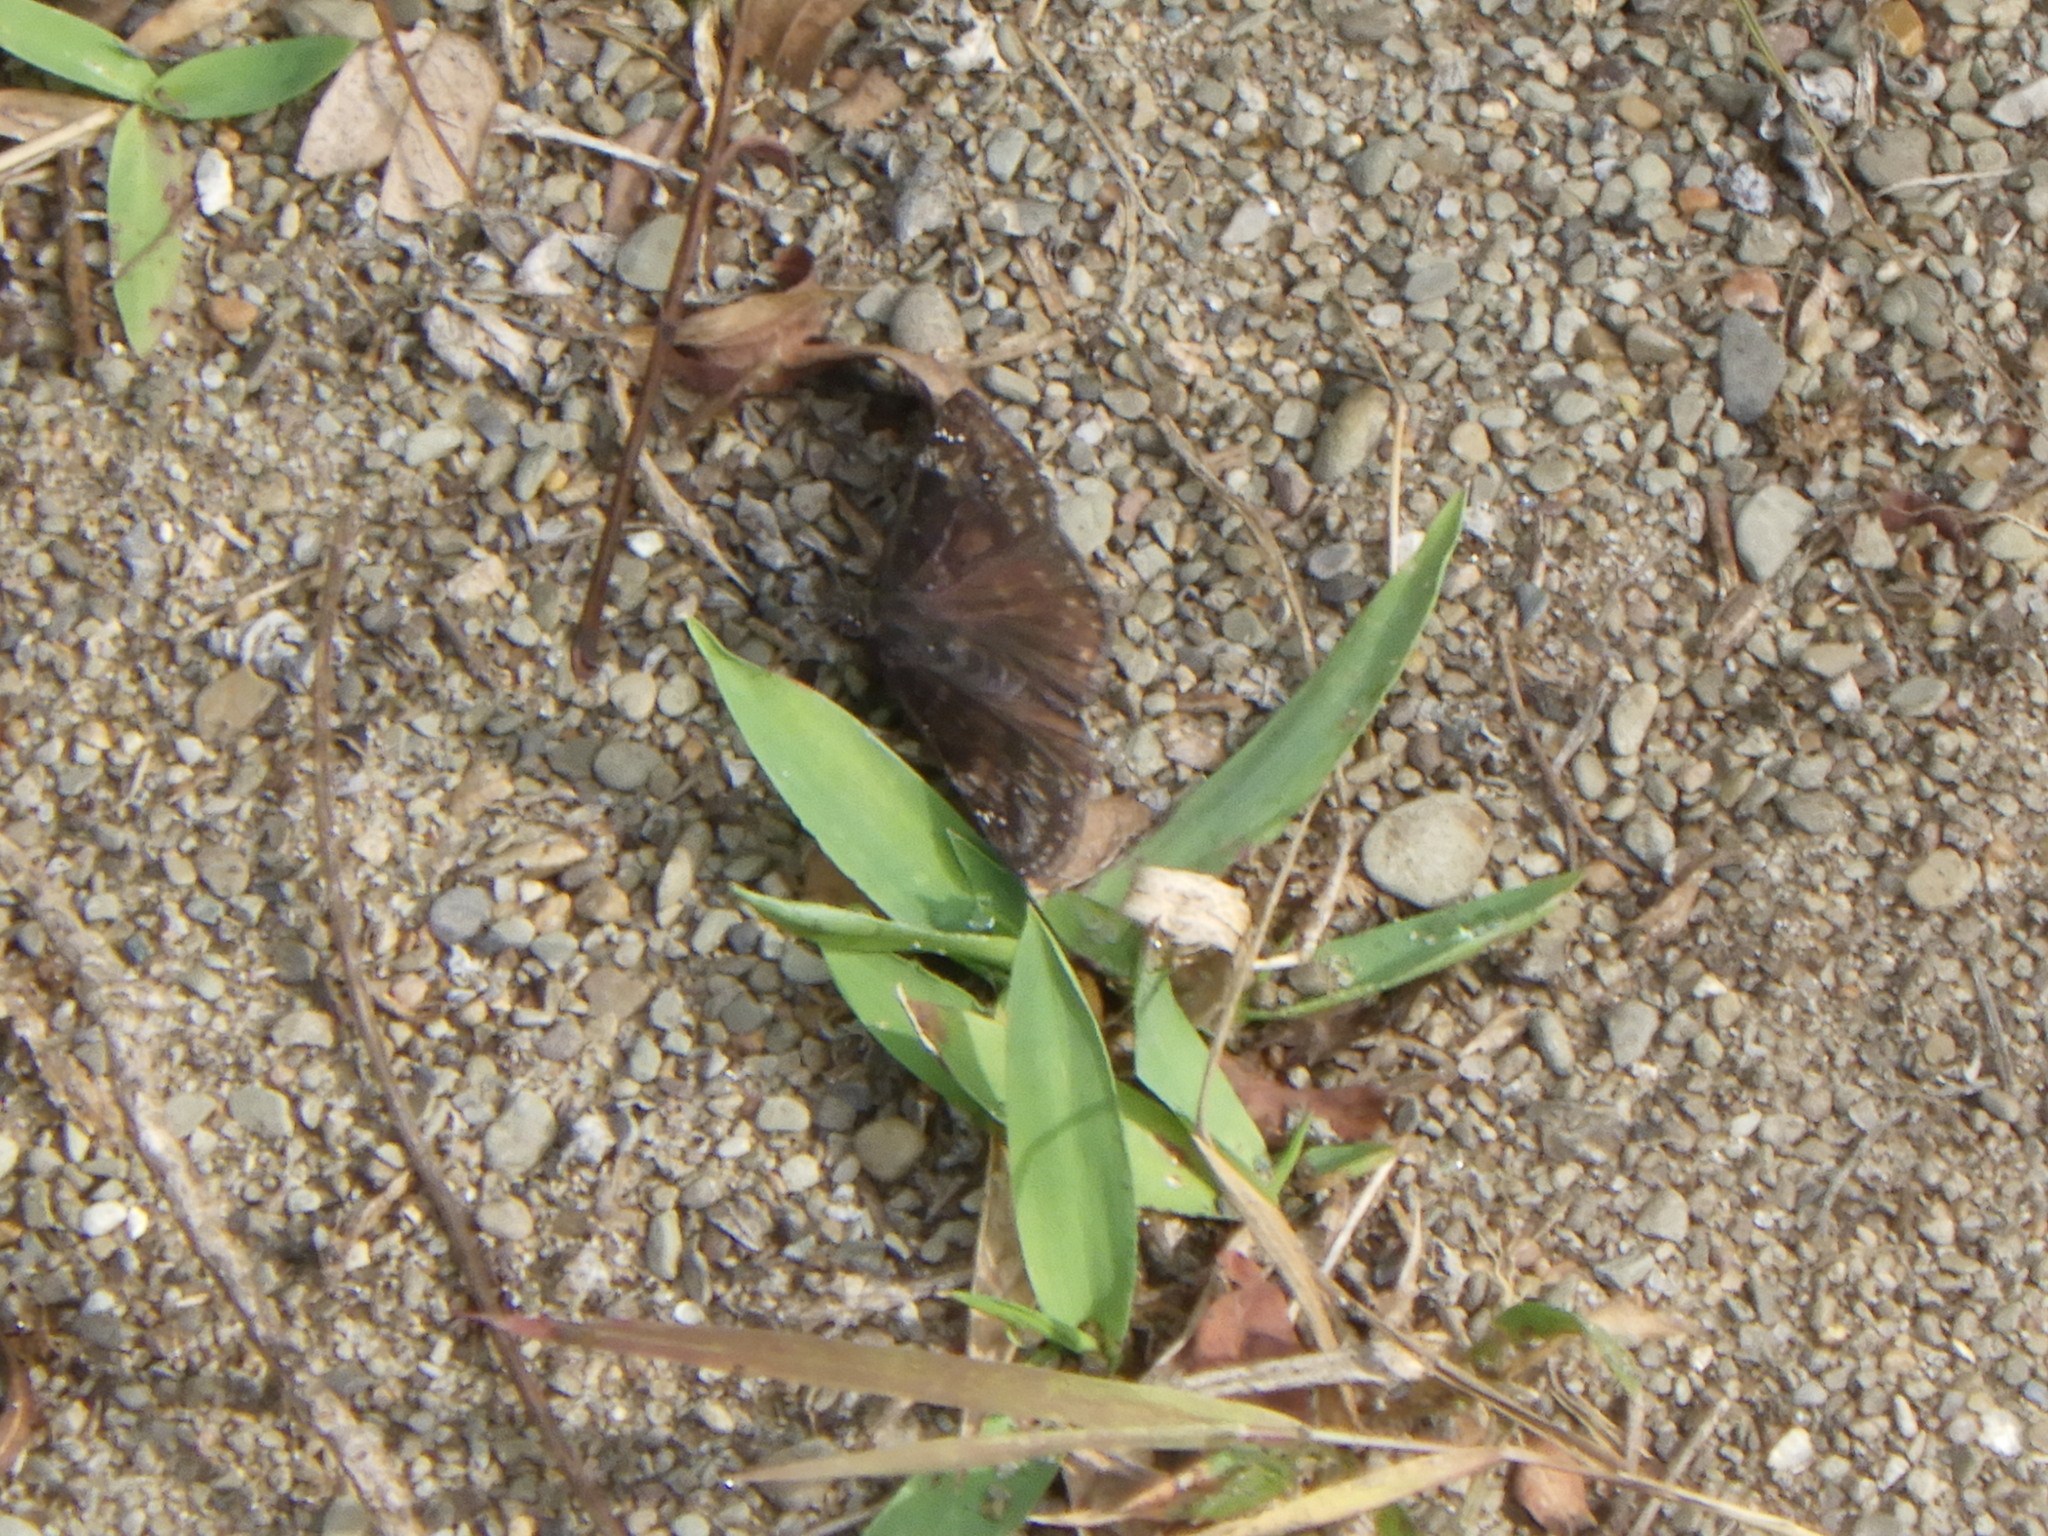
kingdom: Animalia
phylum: Arthropoda
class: Insecta
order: Lepidoptera
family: Hesperiidae
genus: Erynnis
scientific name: Erynnis baptisiae
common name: Wild indigo duskywing
